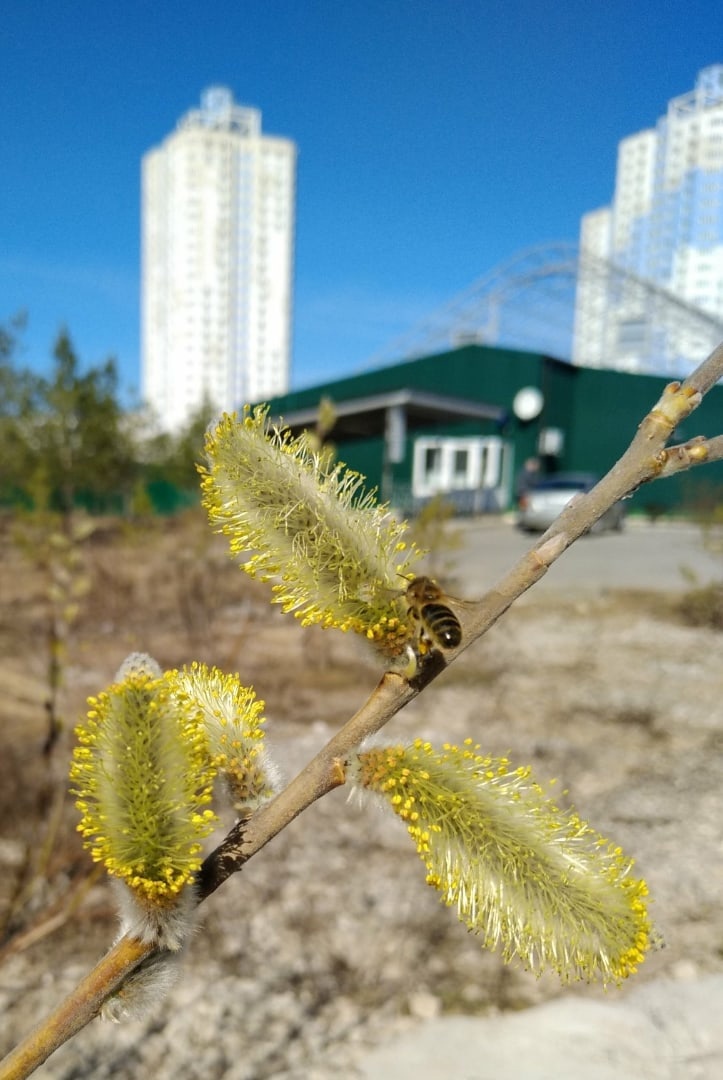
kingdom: Animalia
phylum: Arthropoda
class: Insecta
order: Hymenoptera
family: Apidae
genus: Apis
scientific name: Apis mellifera
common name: Honey bee
